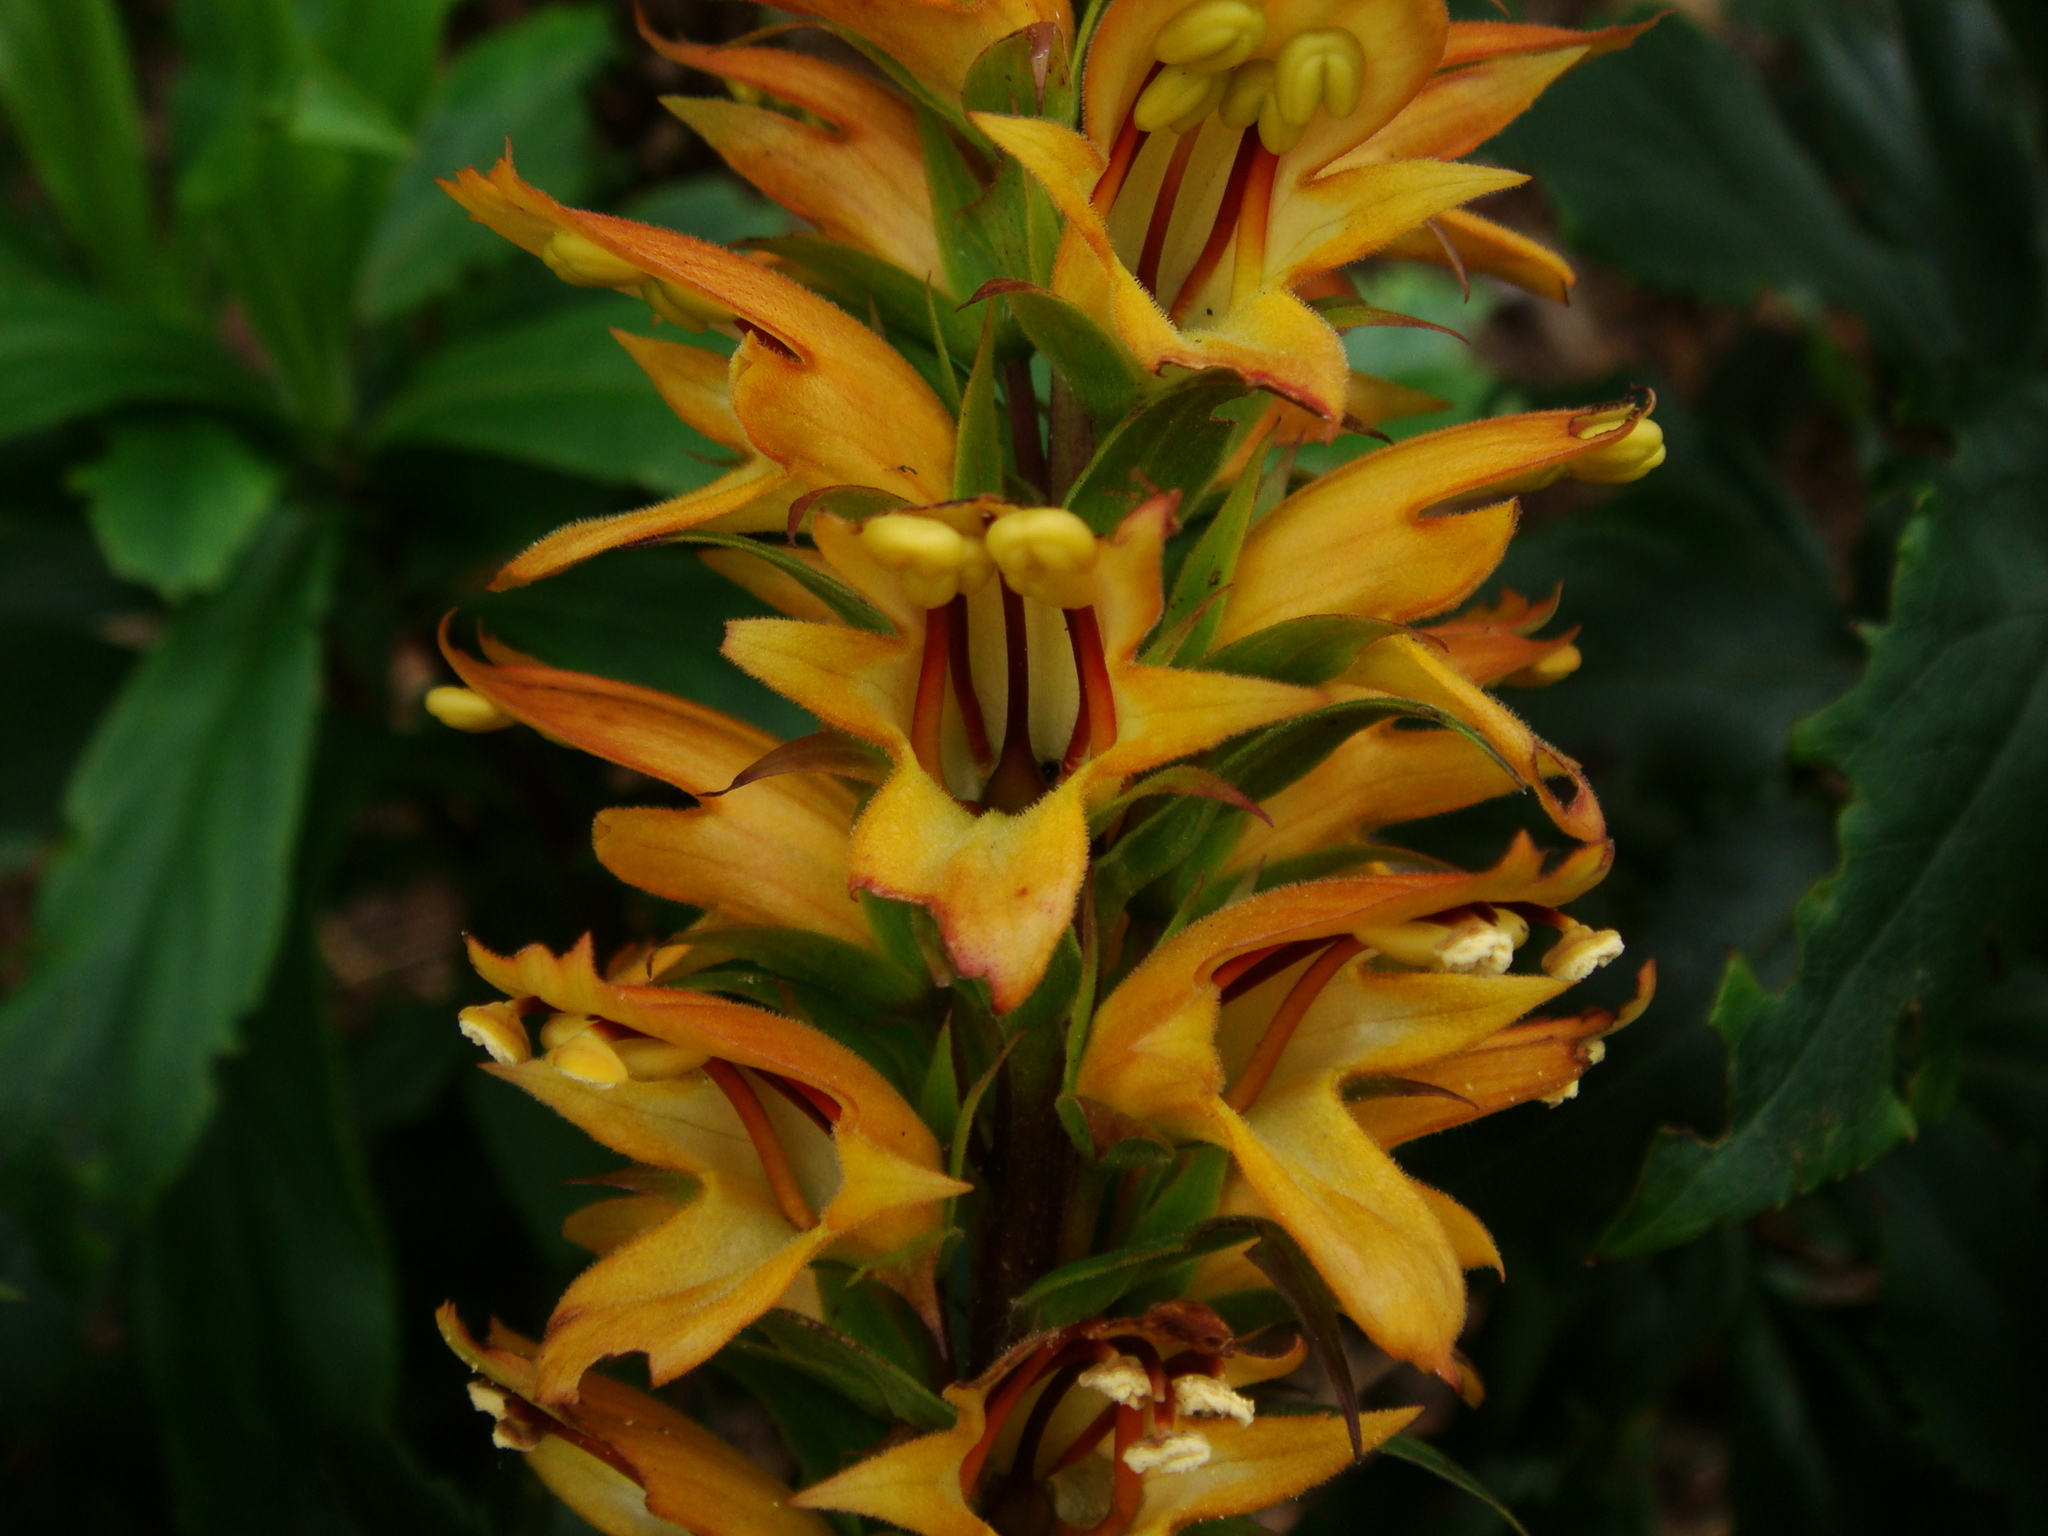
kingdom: Plantae
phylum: Tracheophyta
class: Magnoliopsida
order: Lamiales
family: Plantaginaceae
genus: Digitalis
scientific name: Digitalis canariensis
